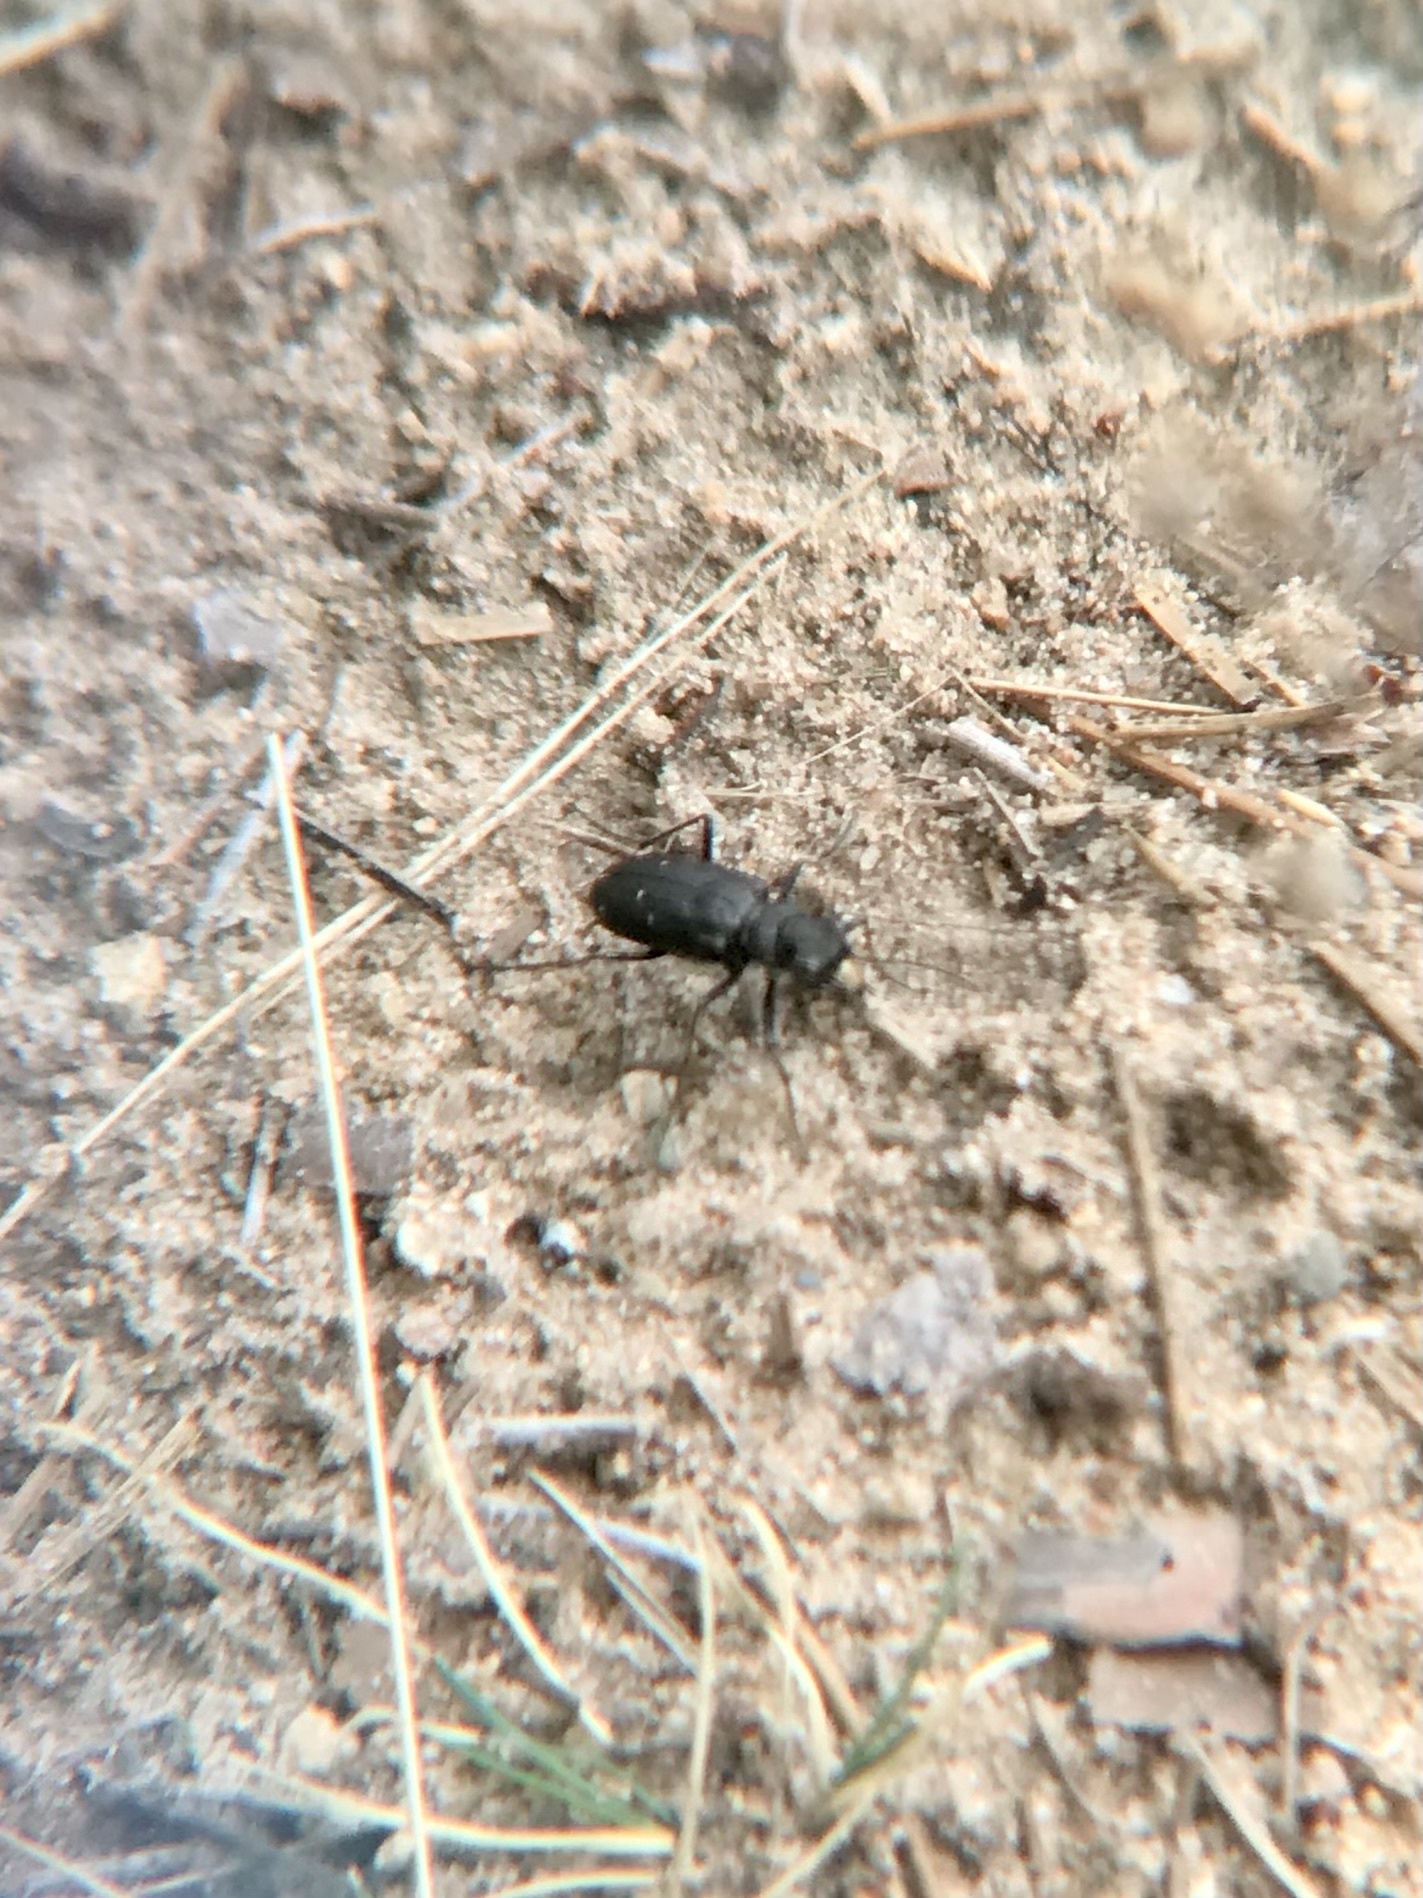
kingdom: Animalia
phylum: Arthropoda
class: Insecta
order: Coleoptera
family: Carabidae
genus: Cicindela
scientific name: Cicindela longilabris
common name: Boreal long-lipped tiger beetle
